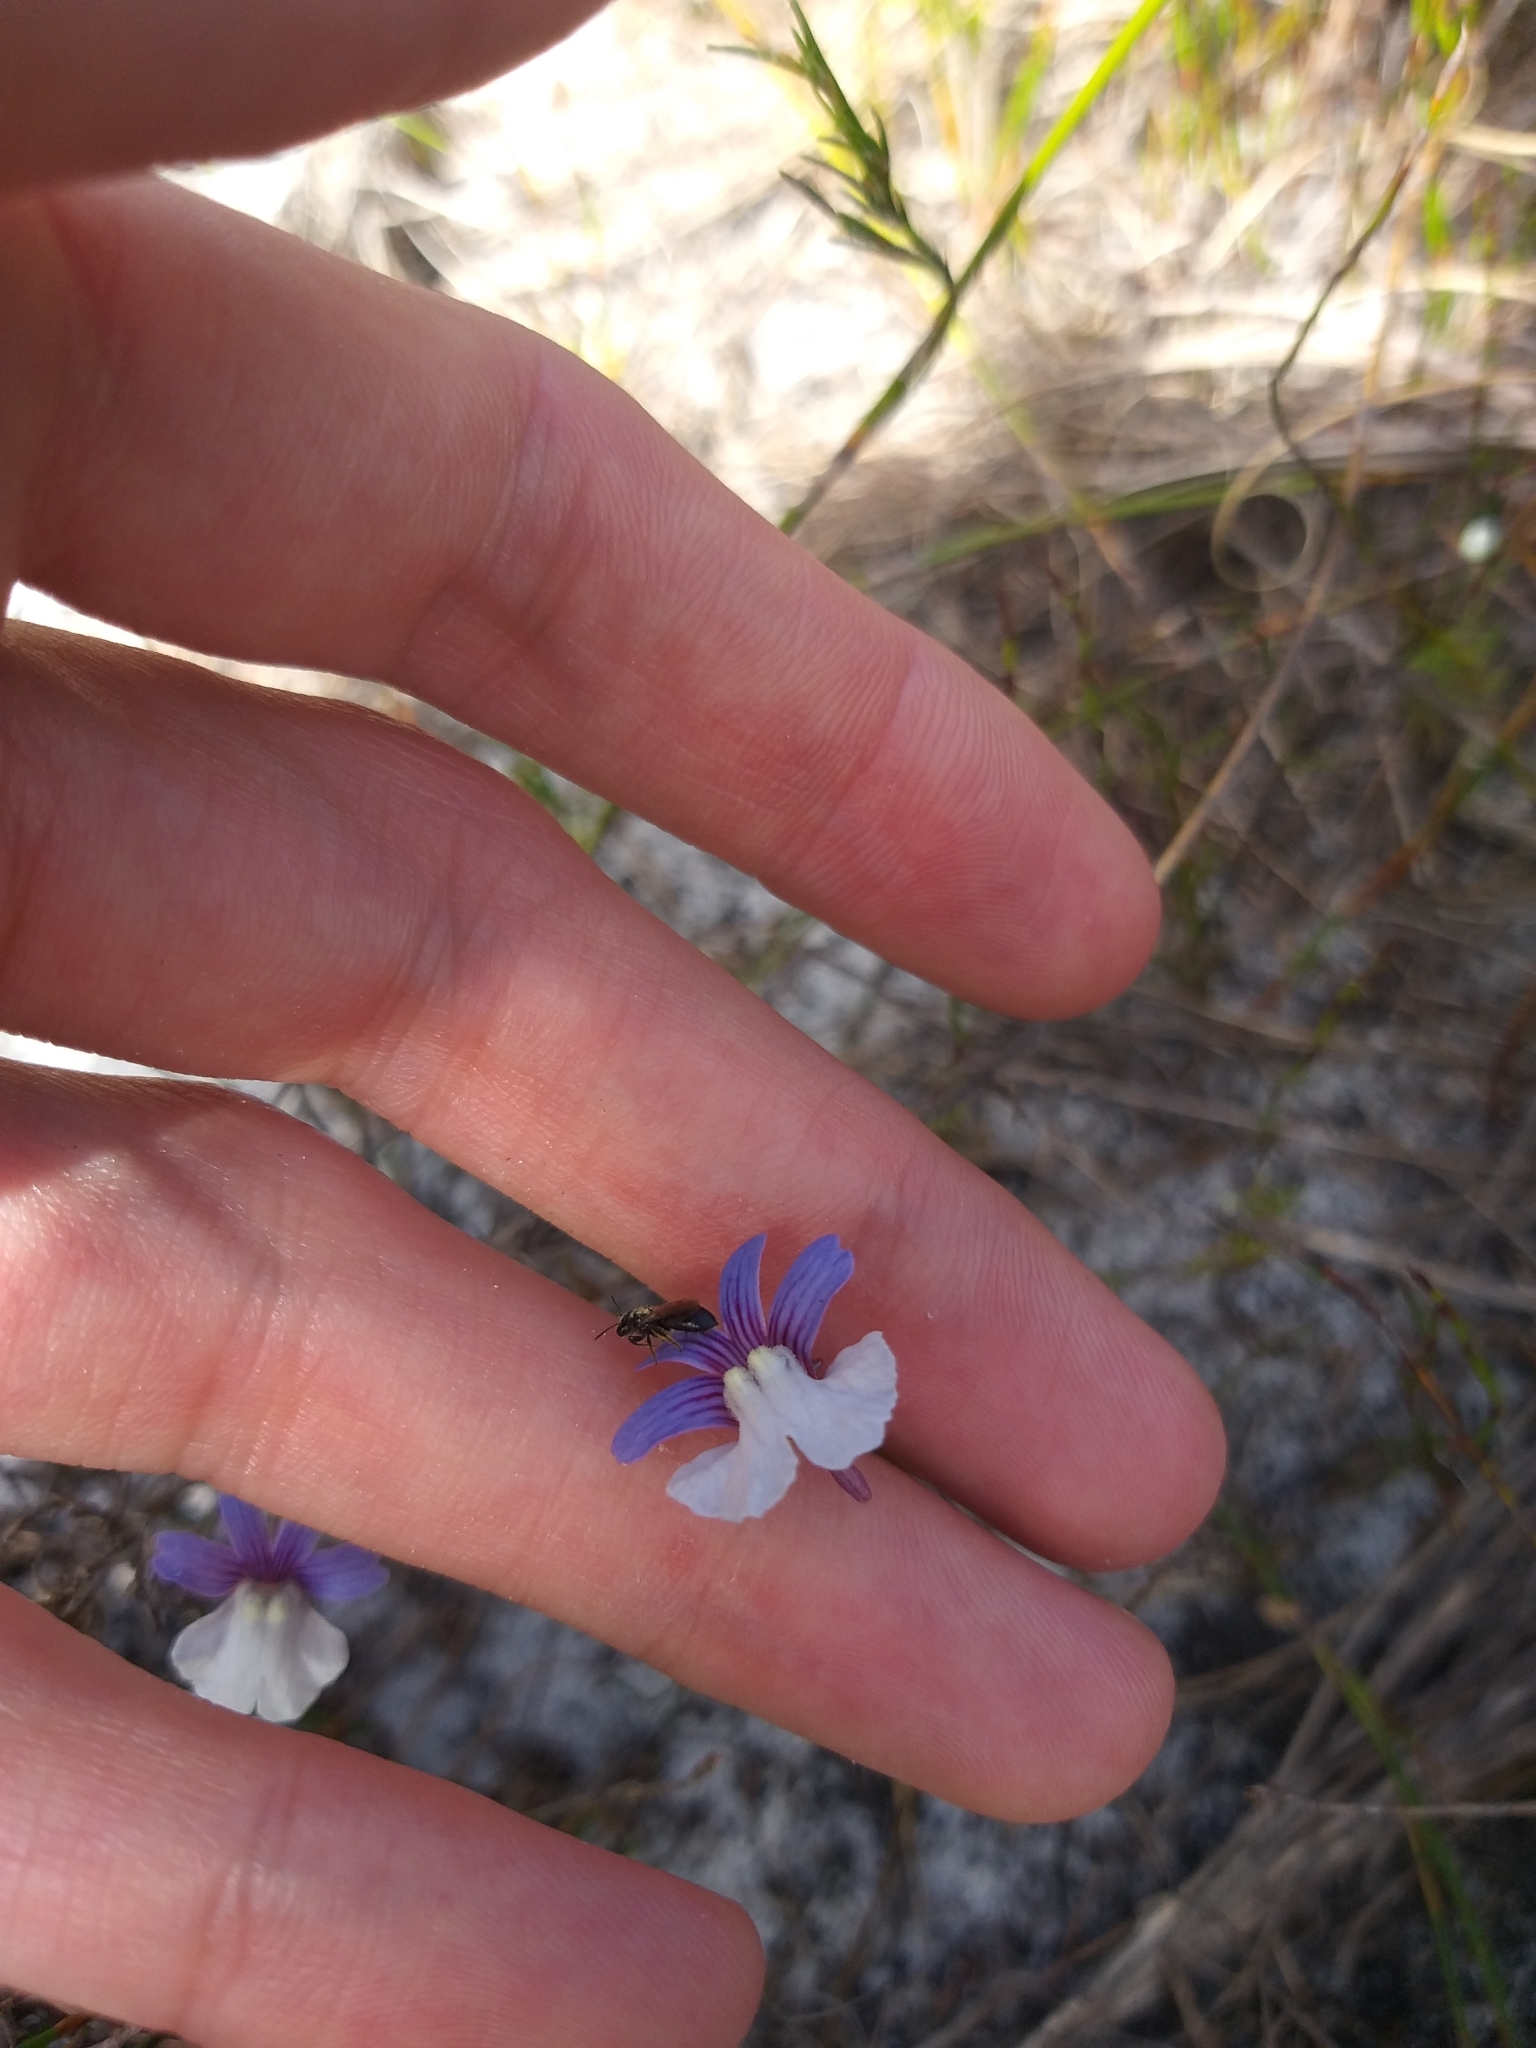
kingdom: Plantae
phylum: Tracheophyta
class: Magnoliopsida
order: Lamiales
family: Scrophulariaceae
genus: Nemesia
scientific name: Nemesia affinis
